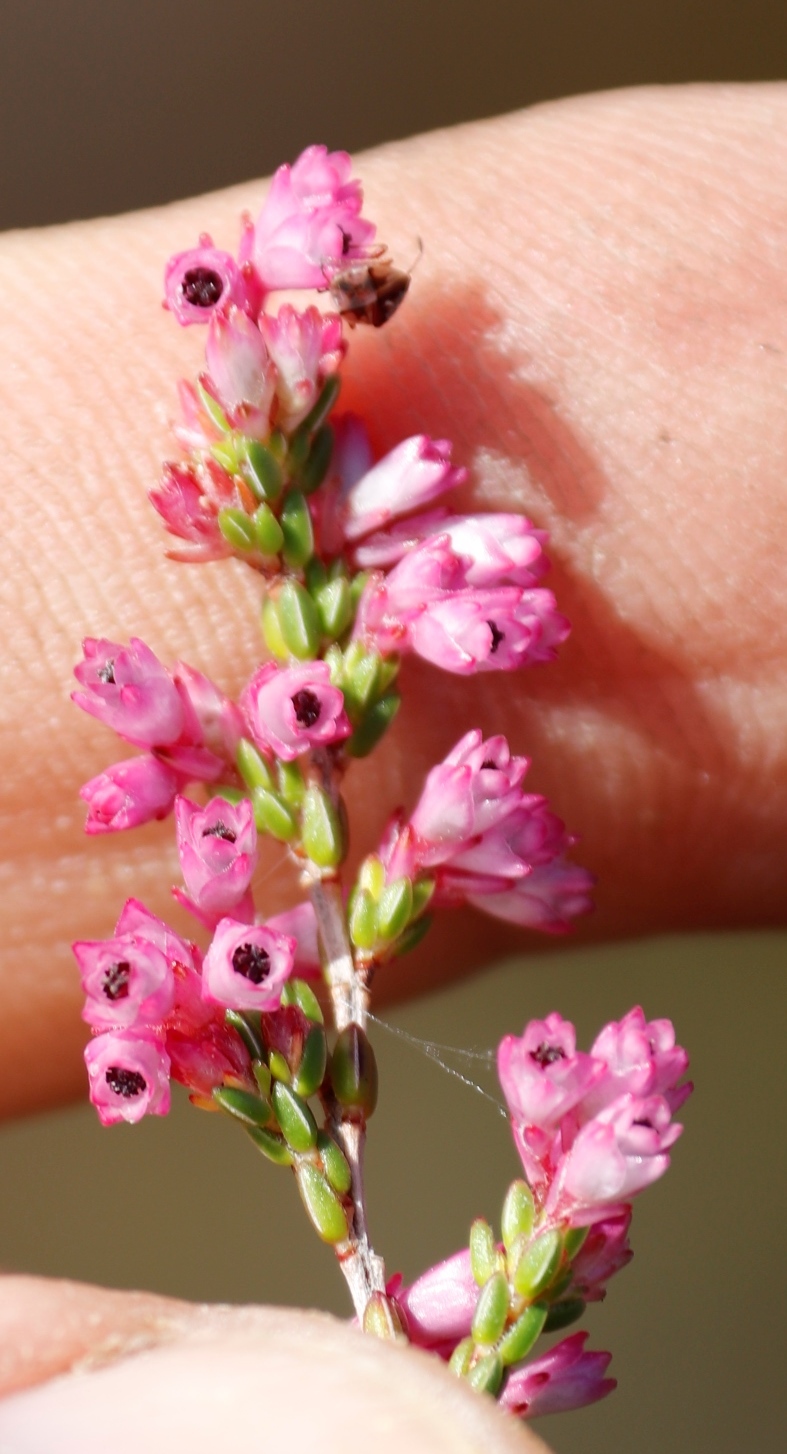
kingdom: Plantae
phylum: Tracheophyta
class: Magnoliopsida
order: Ericales
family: Ericaceae
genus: Erica
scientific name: Erica gnaphaloides
